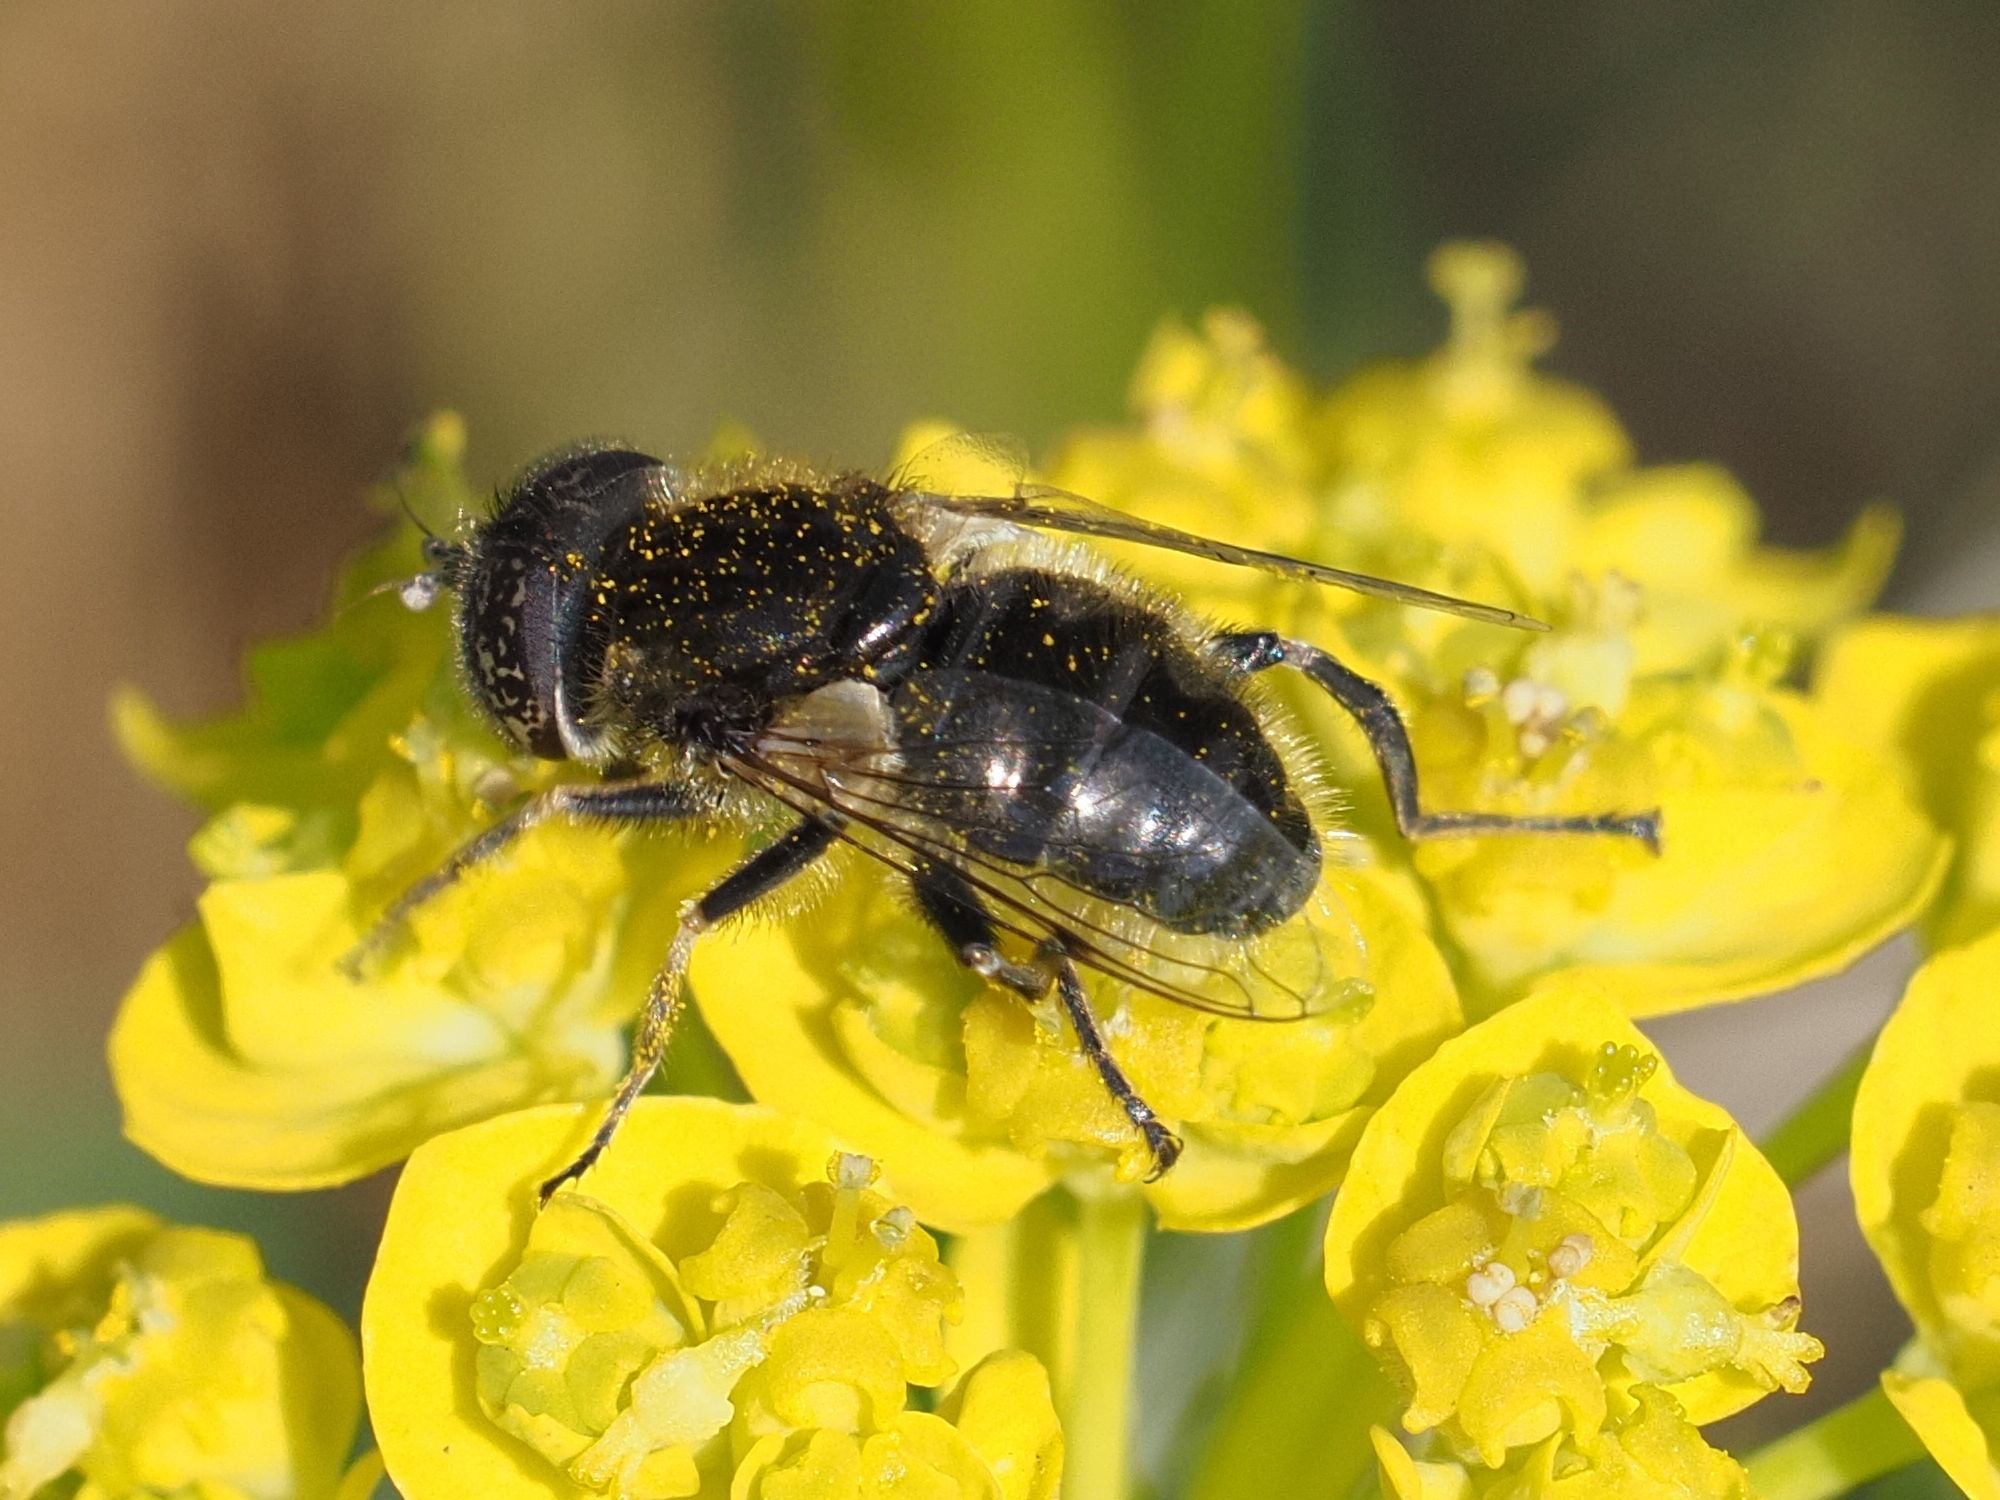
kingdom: Animalia
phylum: Arthropoda
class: Insecta
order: Diptera
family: Syrphidae
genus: Eristalinus
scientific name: Eristalinus sepulchralis
